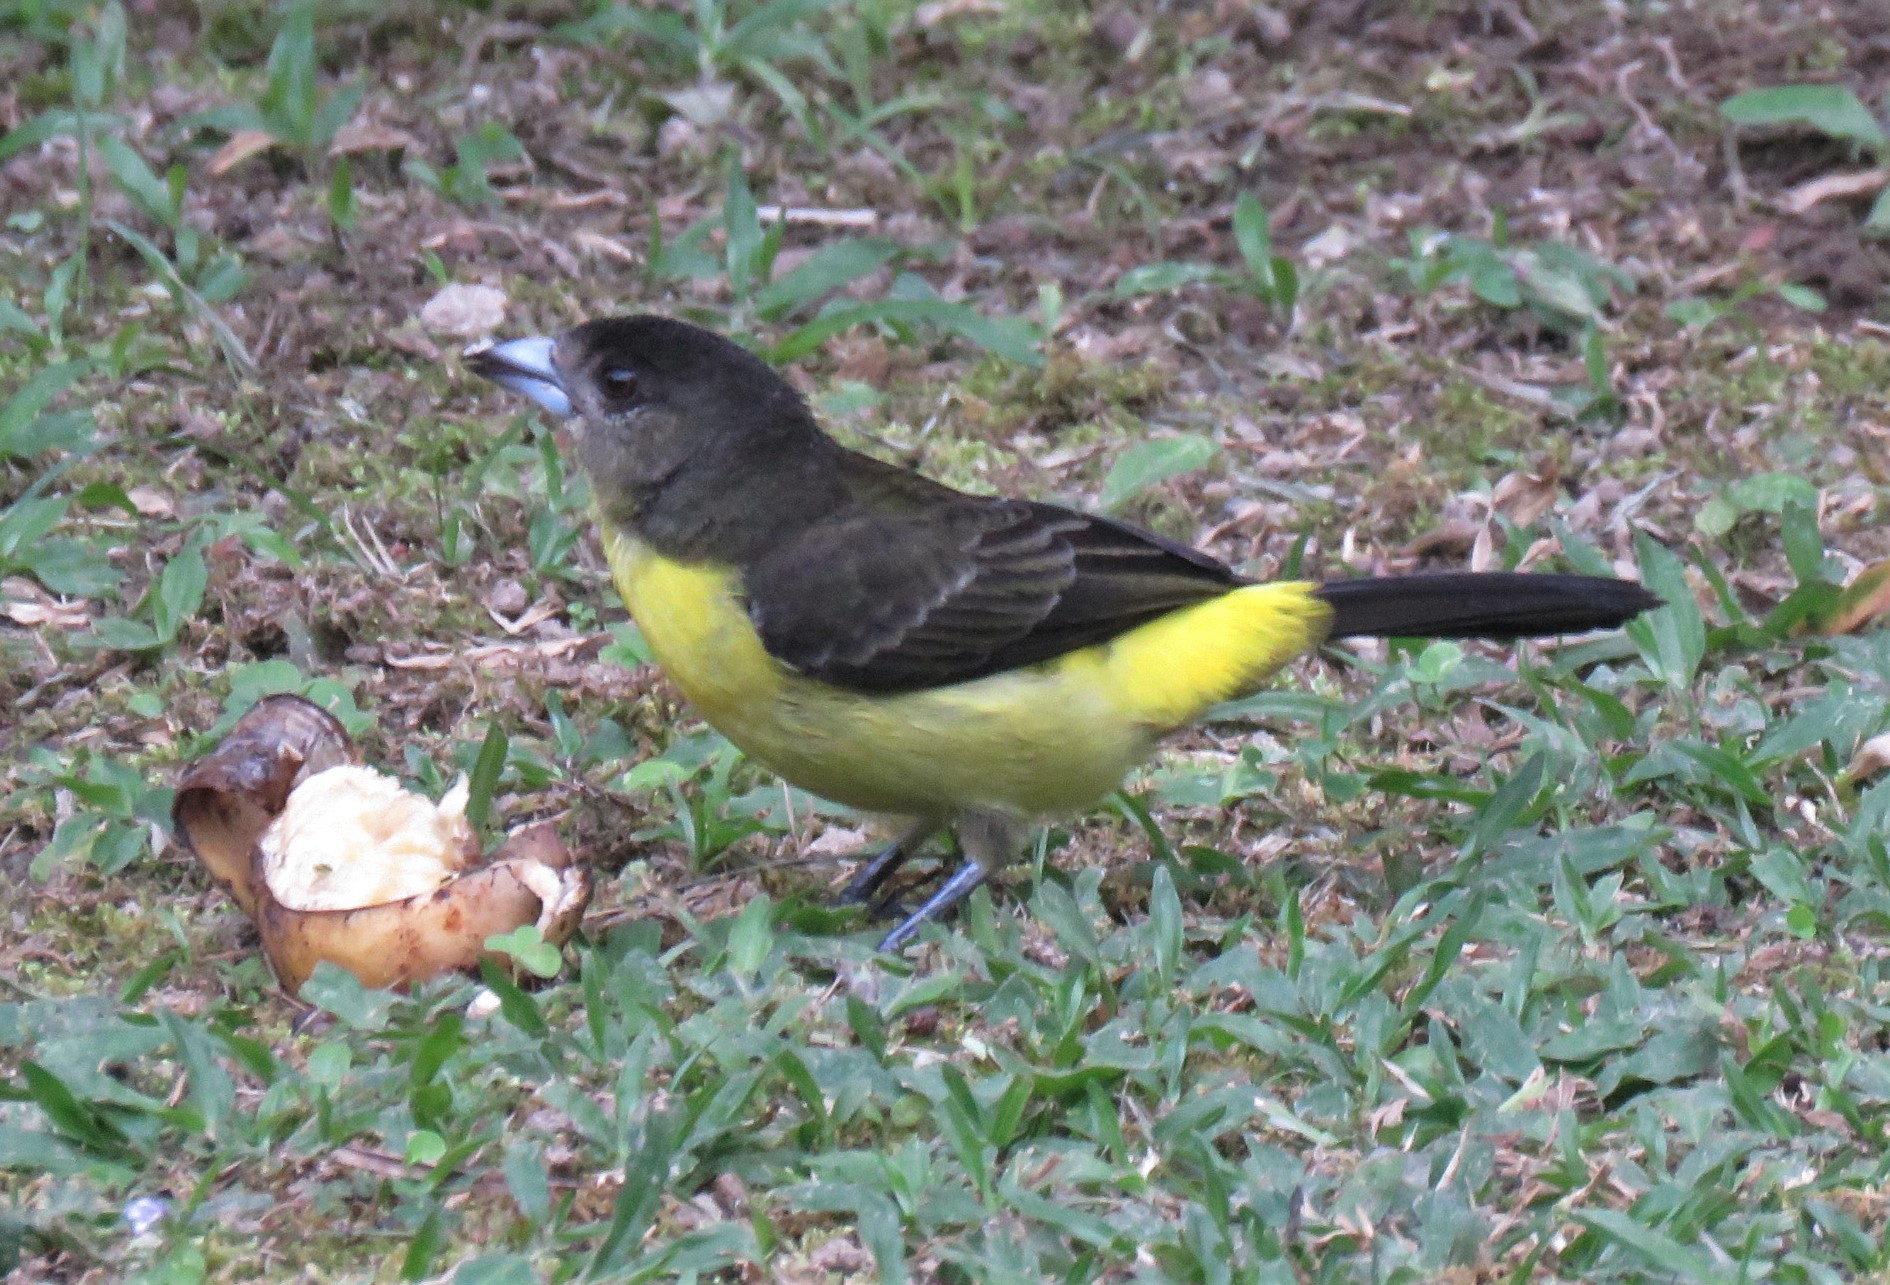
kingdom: Animalia
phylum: Chordata
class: Aves
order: Passeriformes
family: Thraupidae
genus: Ramphocelus
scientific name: Ramphocelus icteronotus
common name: Lemon-rumped tanager
